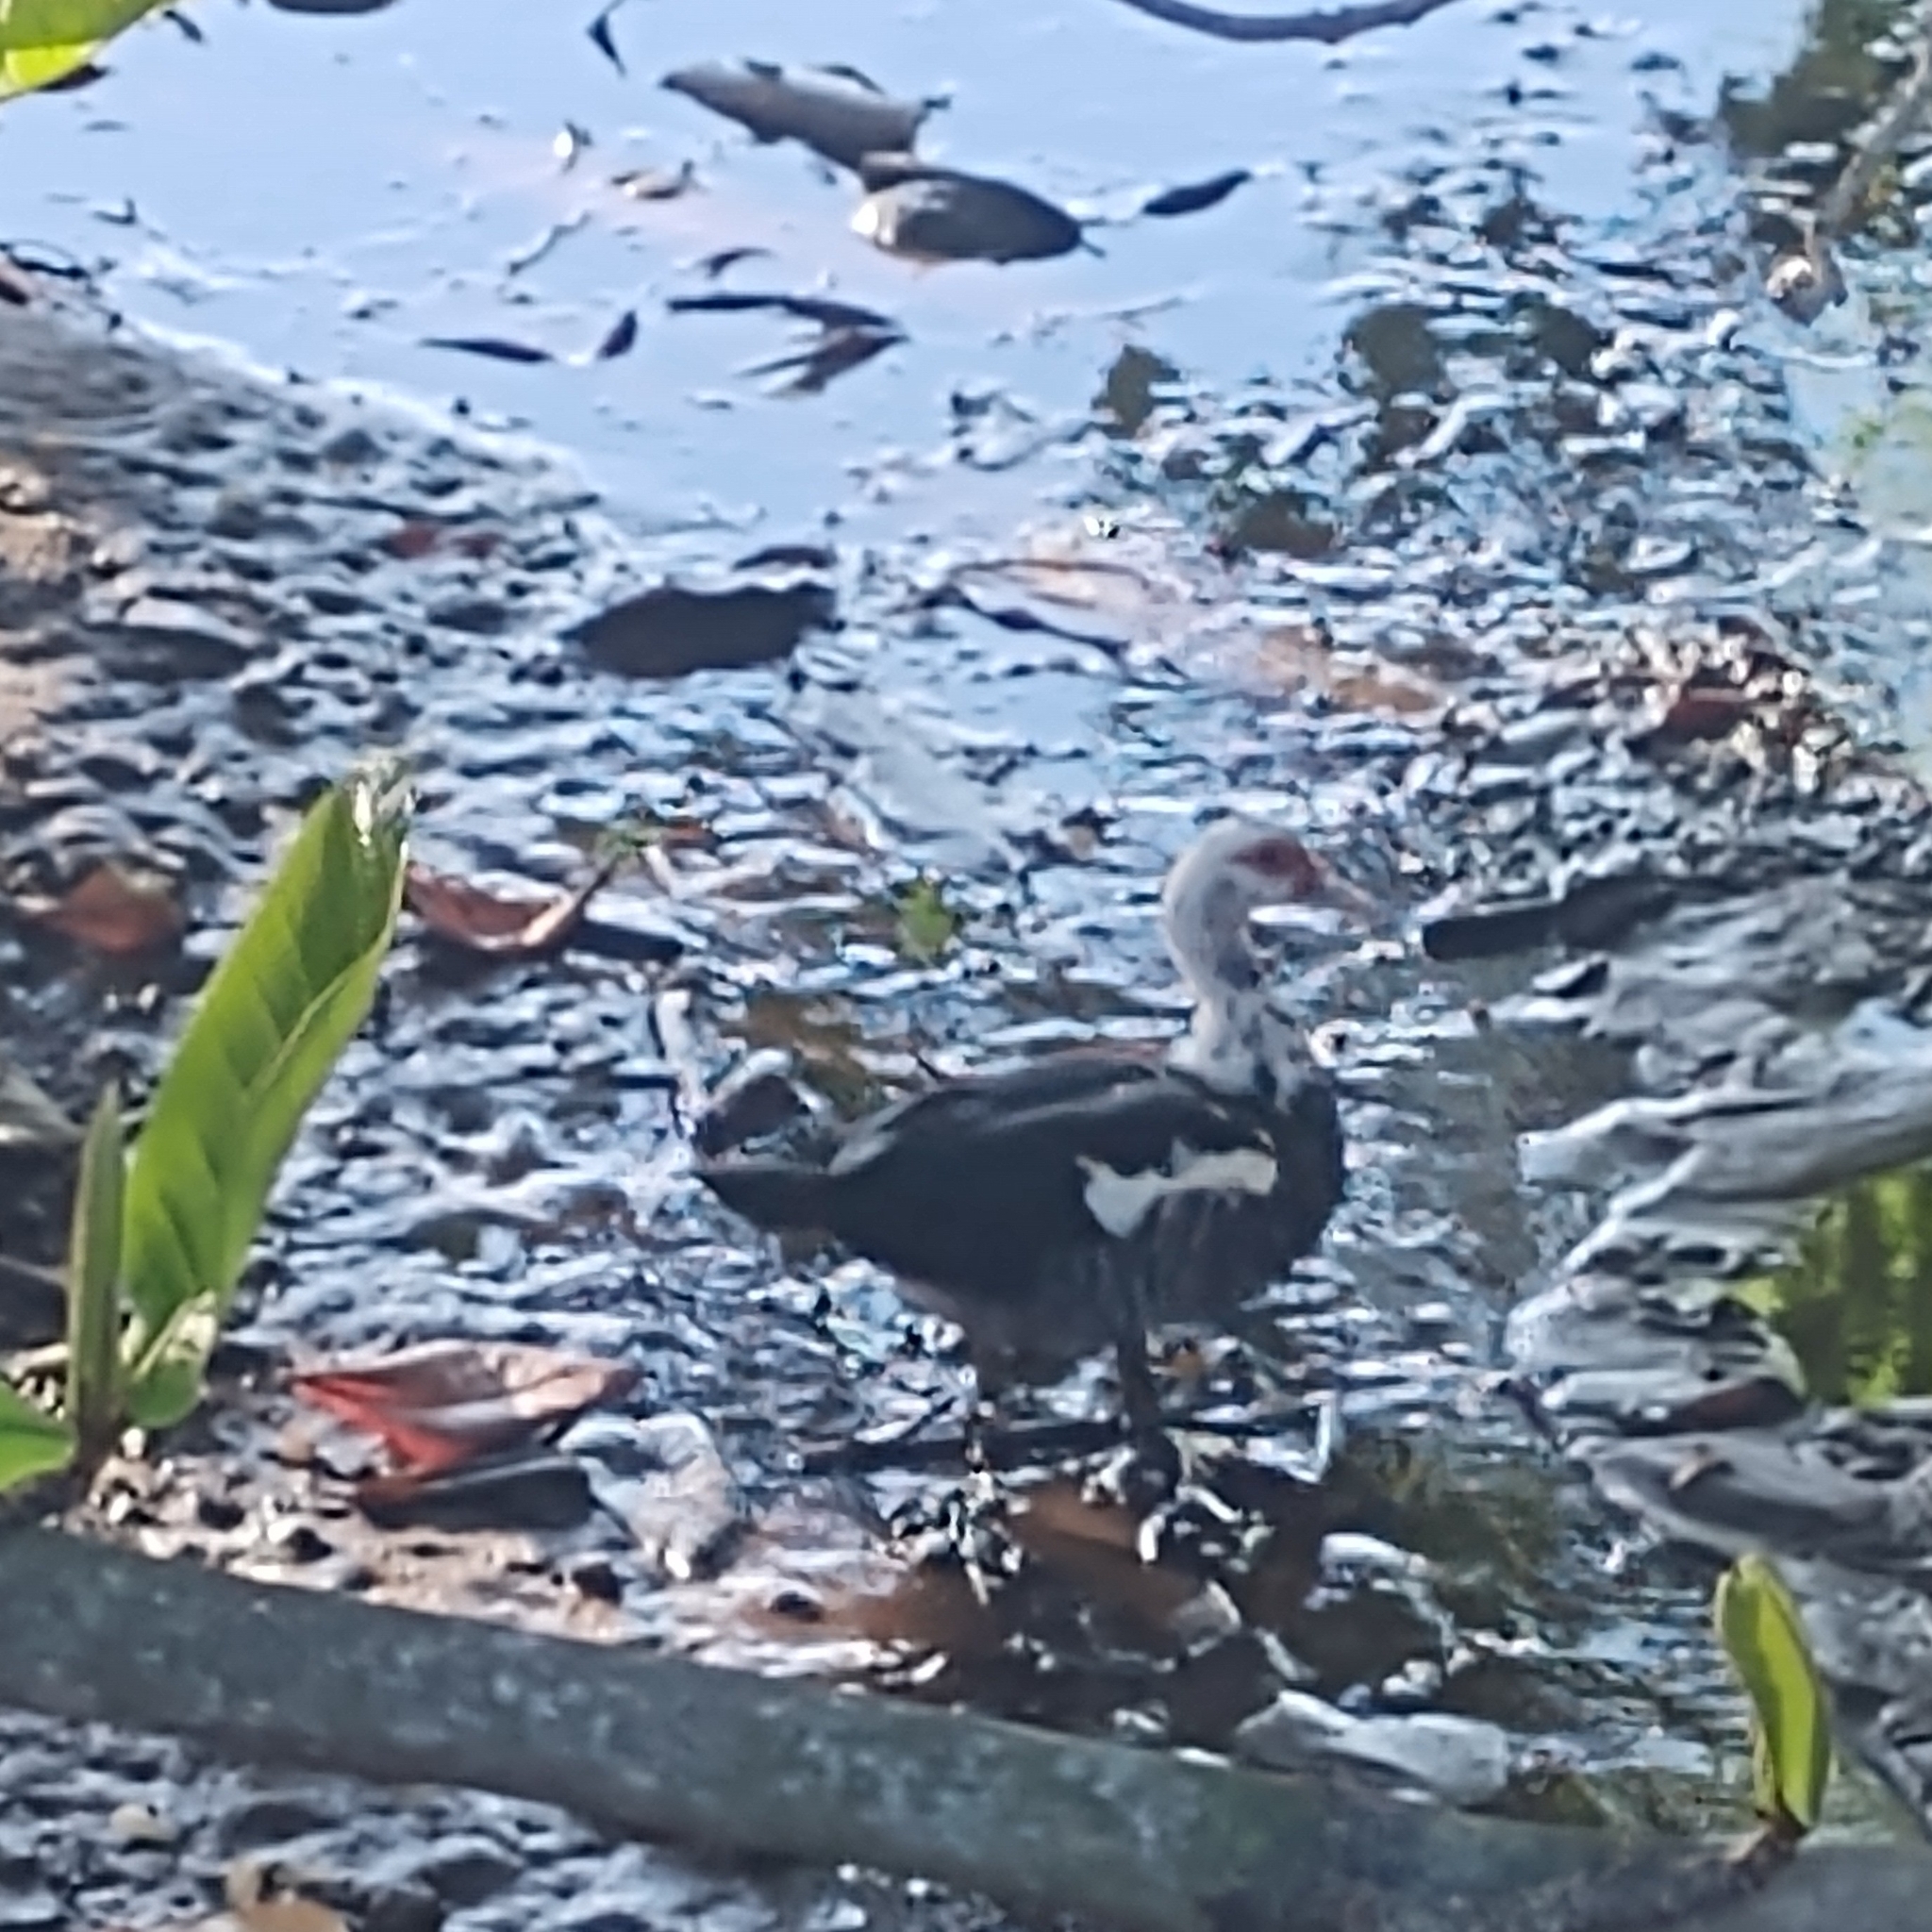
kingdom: Animalia
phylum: Chordata
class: Aves
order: Anseriformes
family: Anatidae
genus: Cairina
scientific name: Cairina moschata
